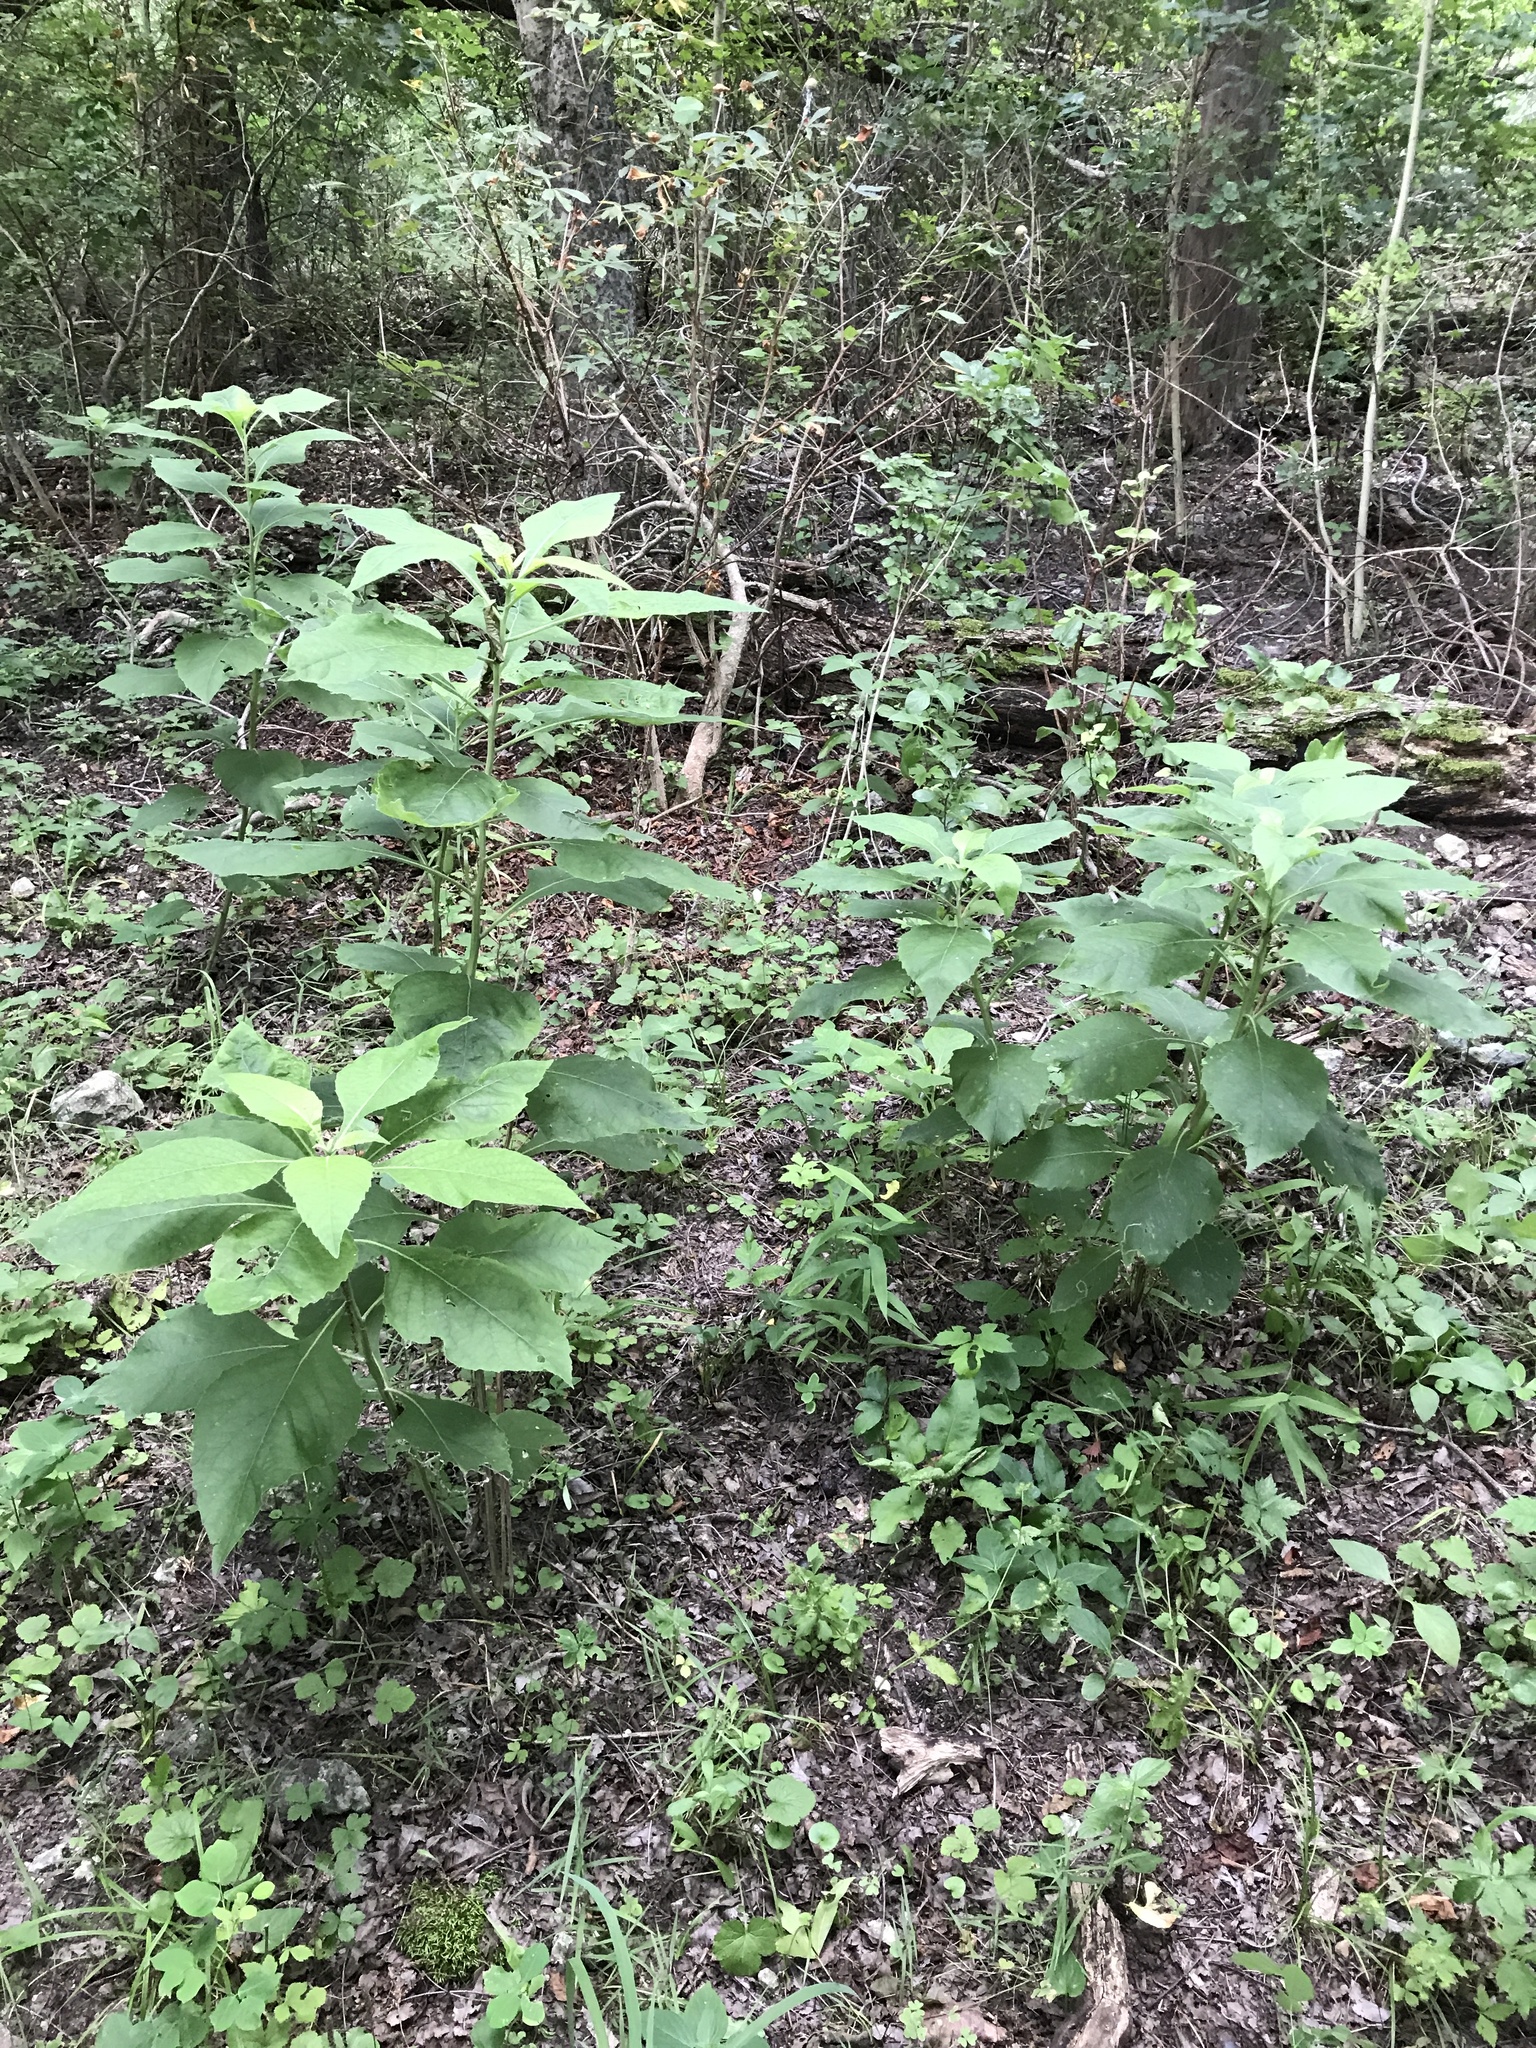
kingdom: Plantae
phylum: Tracheophyta
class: Magnoliopsida
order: Asterales
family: Asteraceae
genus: Verbesina
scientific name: Verbesina virginica
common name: Frostweed
